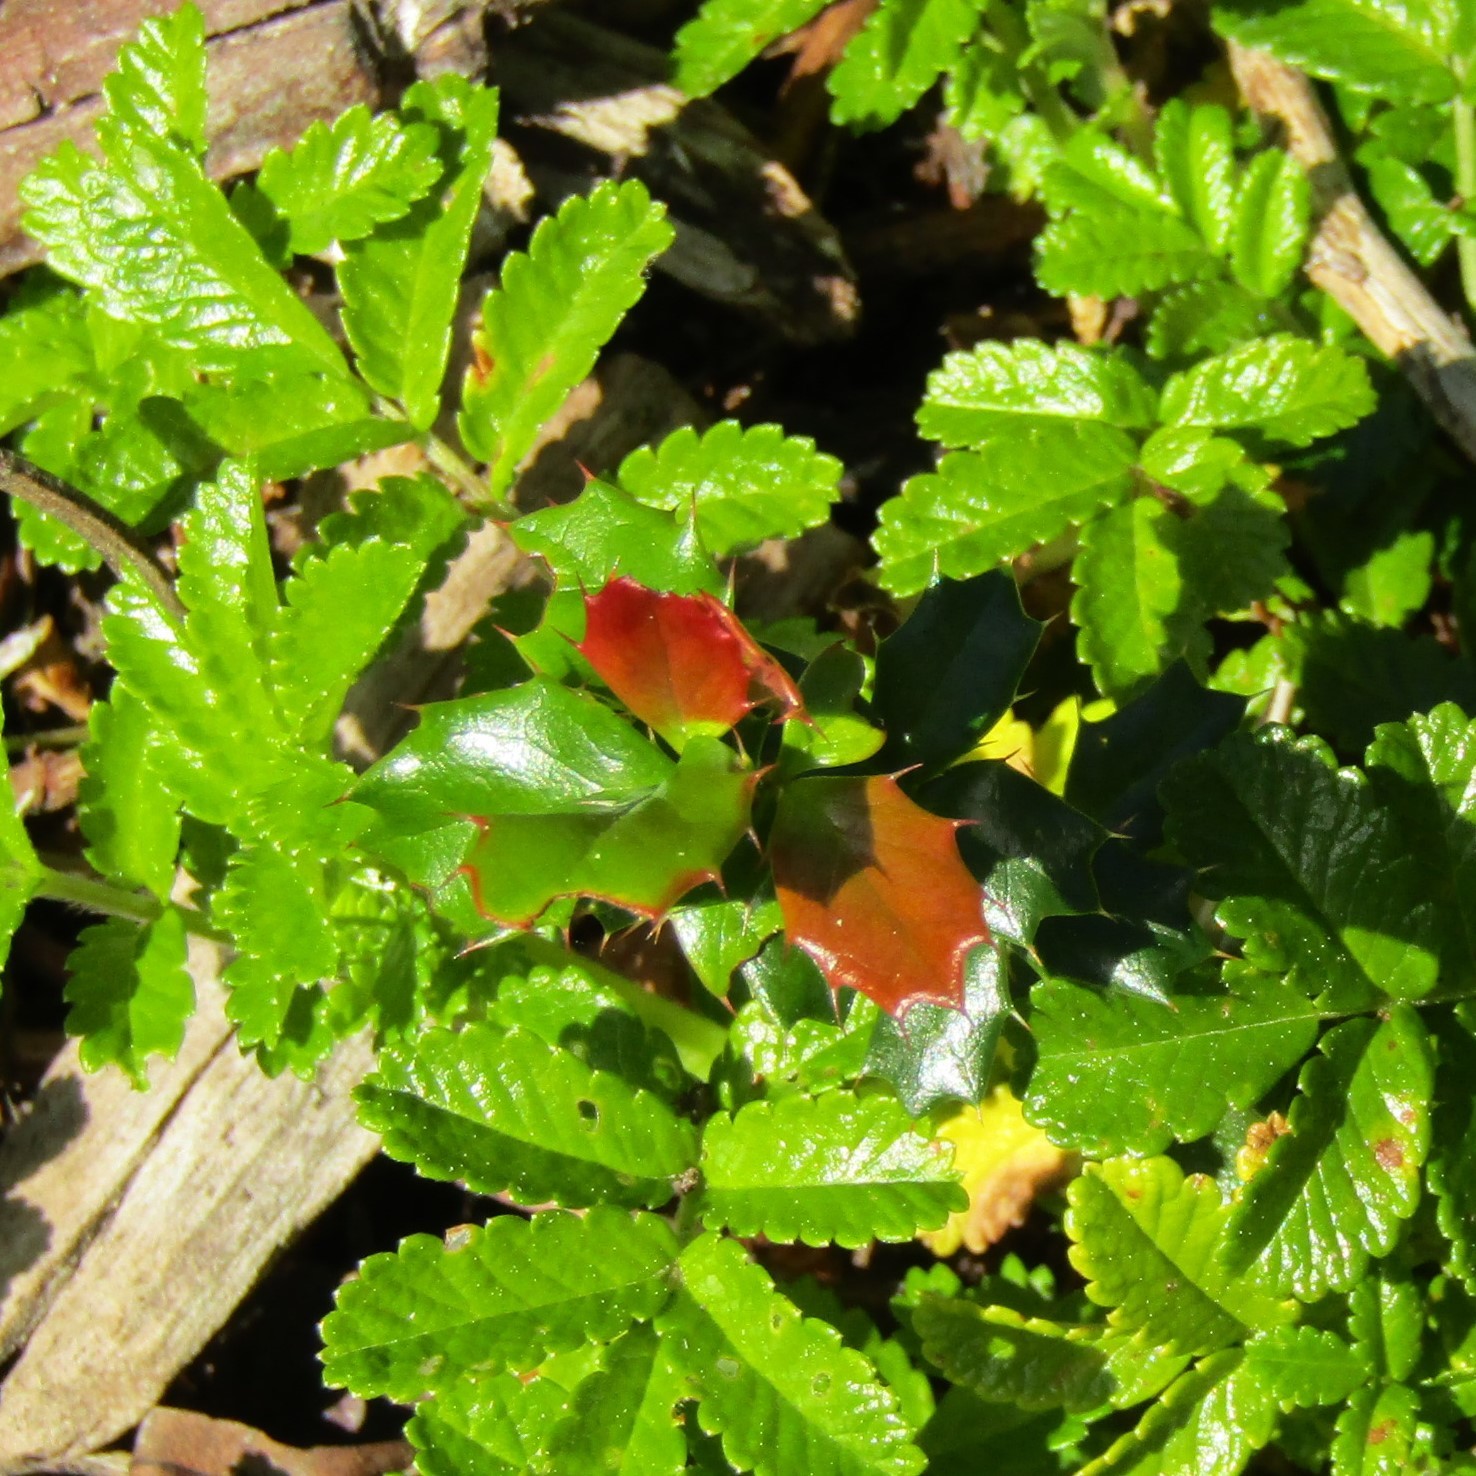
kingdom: Plantae
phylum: Tracheophyta
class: Magnoliopsida
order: Ranunculales
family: Berberidaceae
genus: Berberis
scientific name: Berberis darwinii
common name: Darwin's barberry
